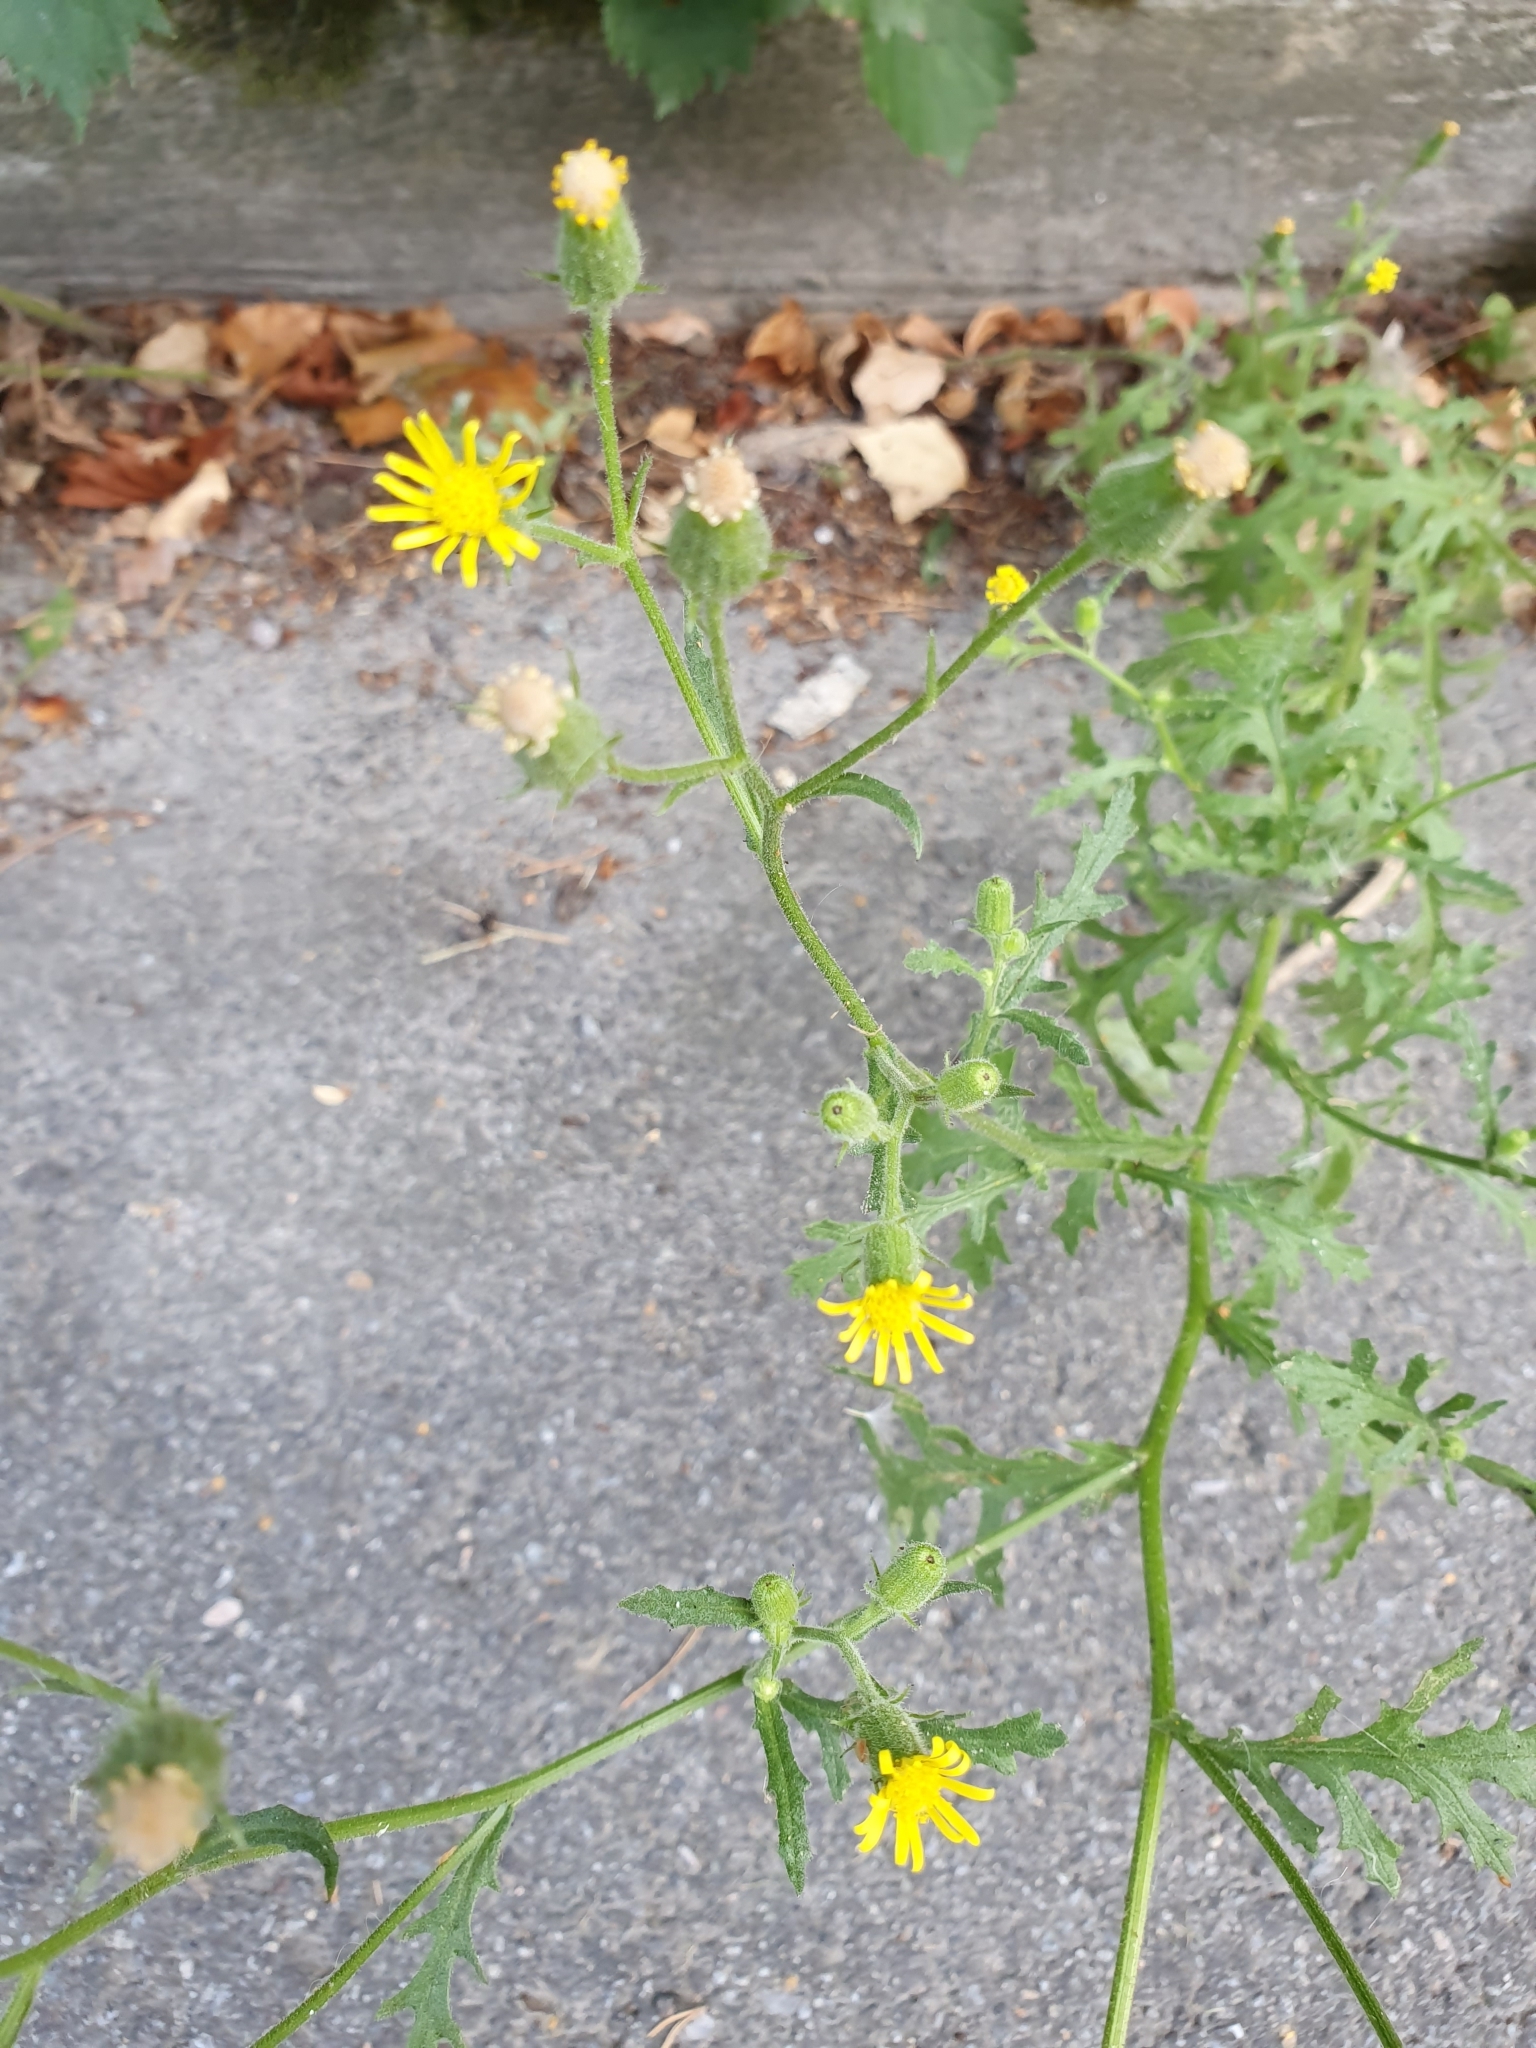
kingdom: Plantae
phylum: Tracheophyta
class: Magnoliopsida
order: Asterales
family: Asteraceae
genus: Senecio
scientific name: Senecio viscosus
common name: Sticky groundsel
